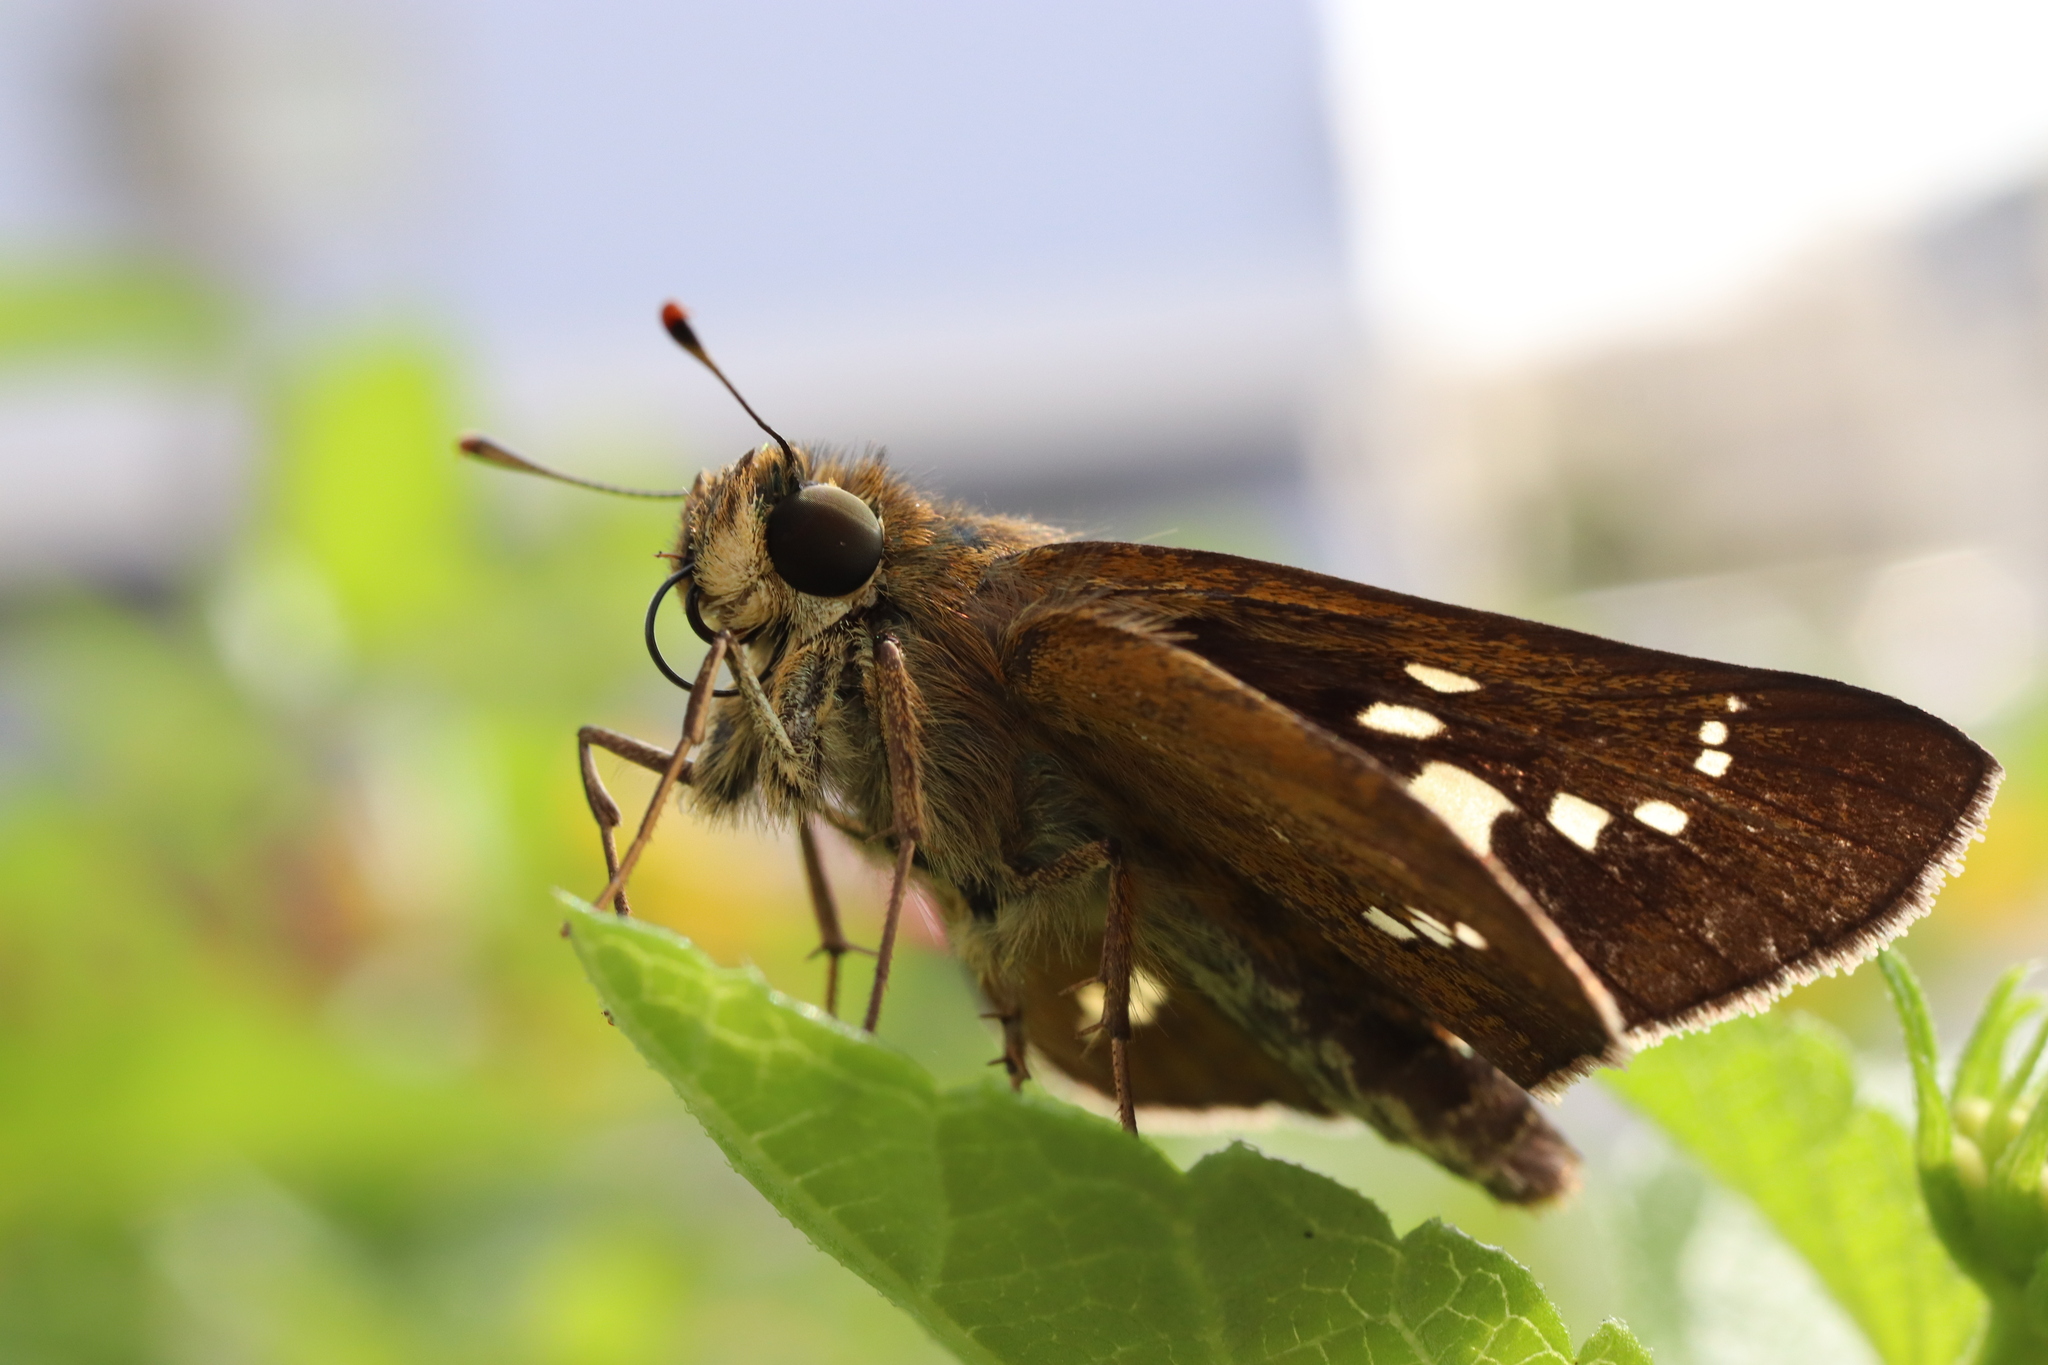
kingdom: Animalia
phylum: Arthropoda
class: Insecta
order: Lepidoptera
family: Hesperiidae
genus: Parnara
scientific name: Parnara guttatus
